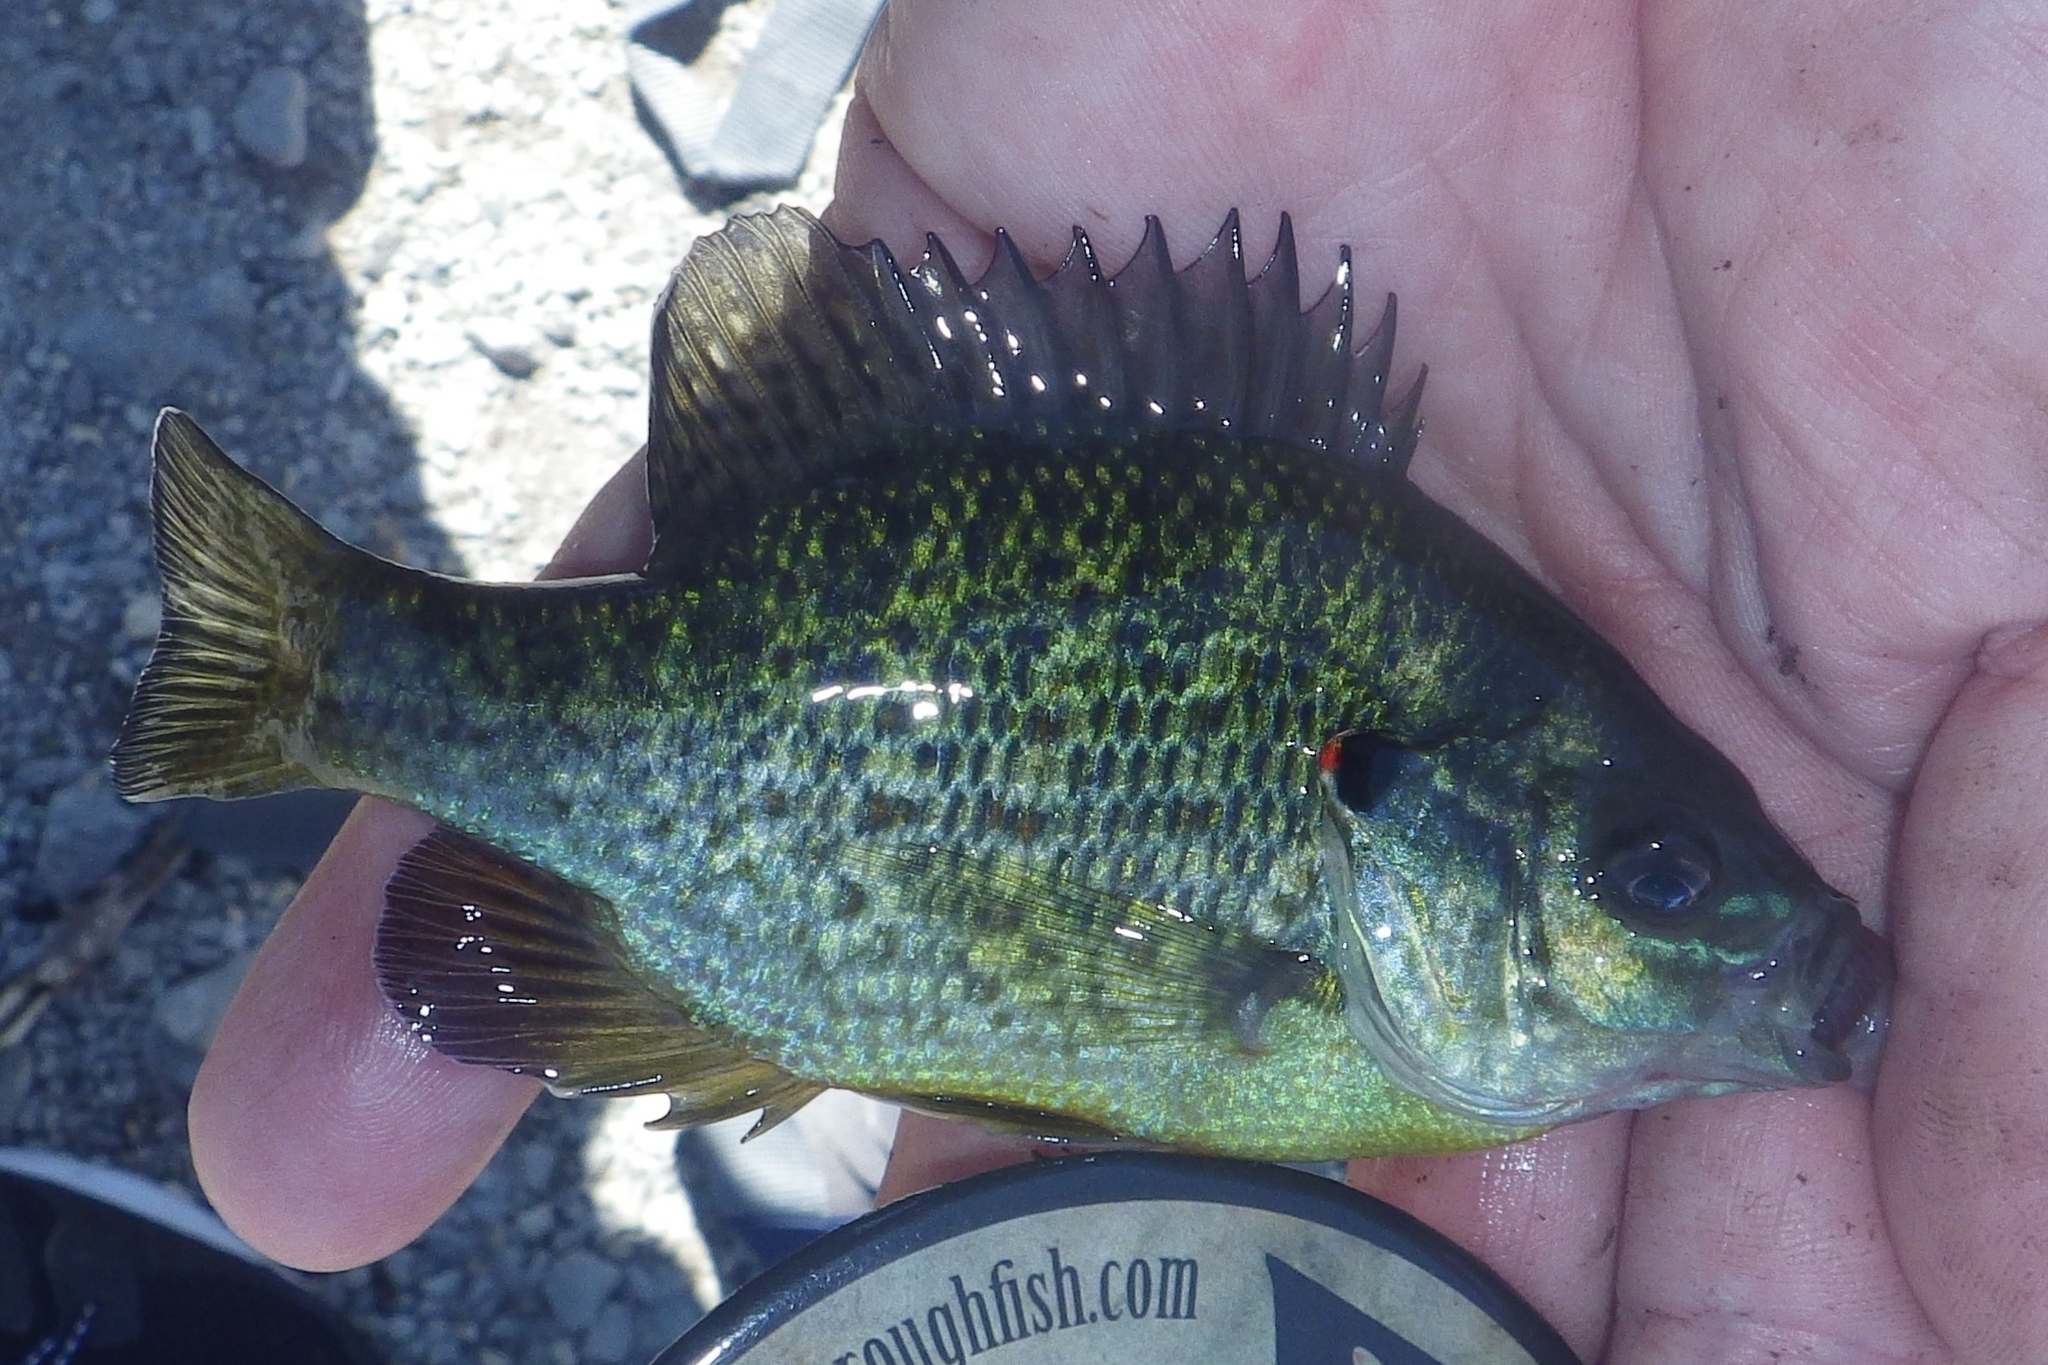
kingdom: Animalia
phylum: Chordata
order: Perciformes
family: Centrarchidae
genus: Lepomis
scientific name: Lepomis gibbosus
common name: Pumpkinseed
